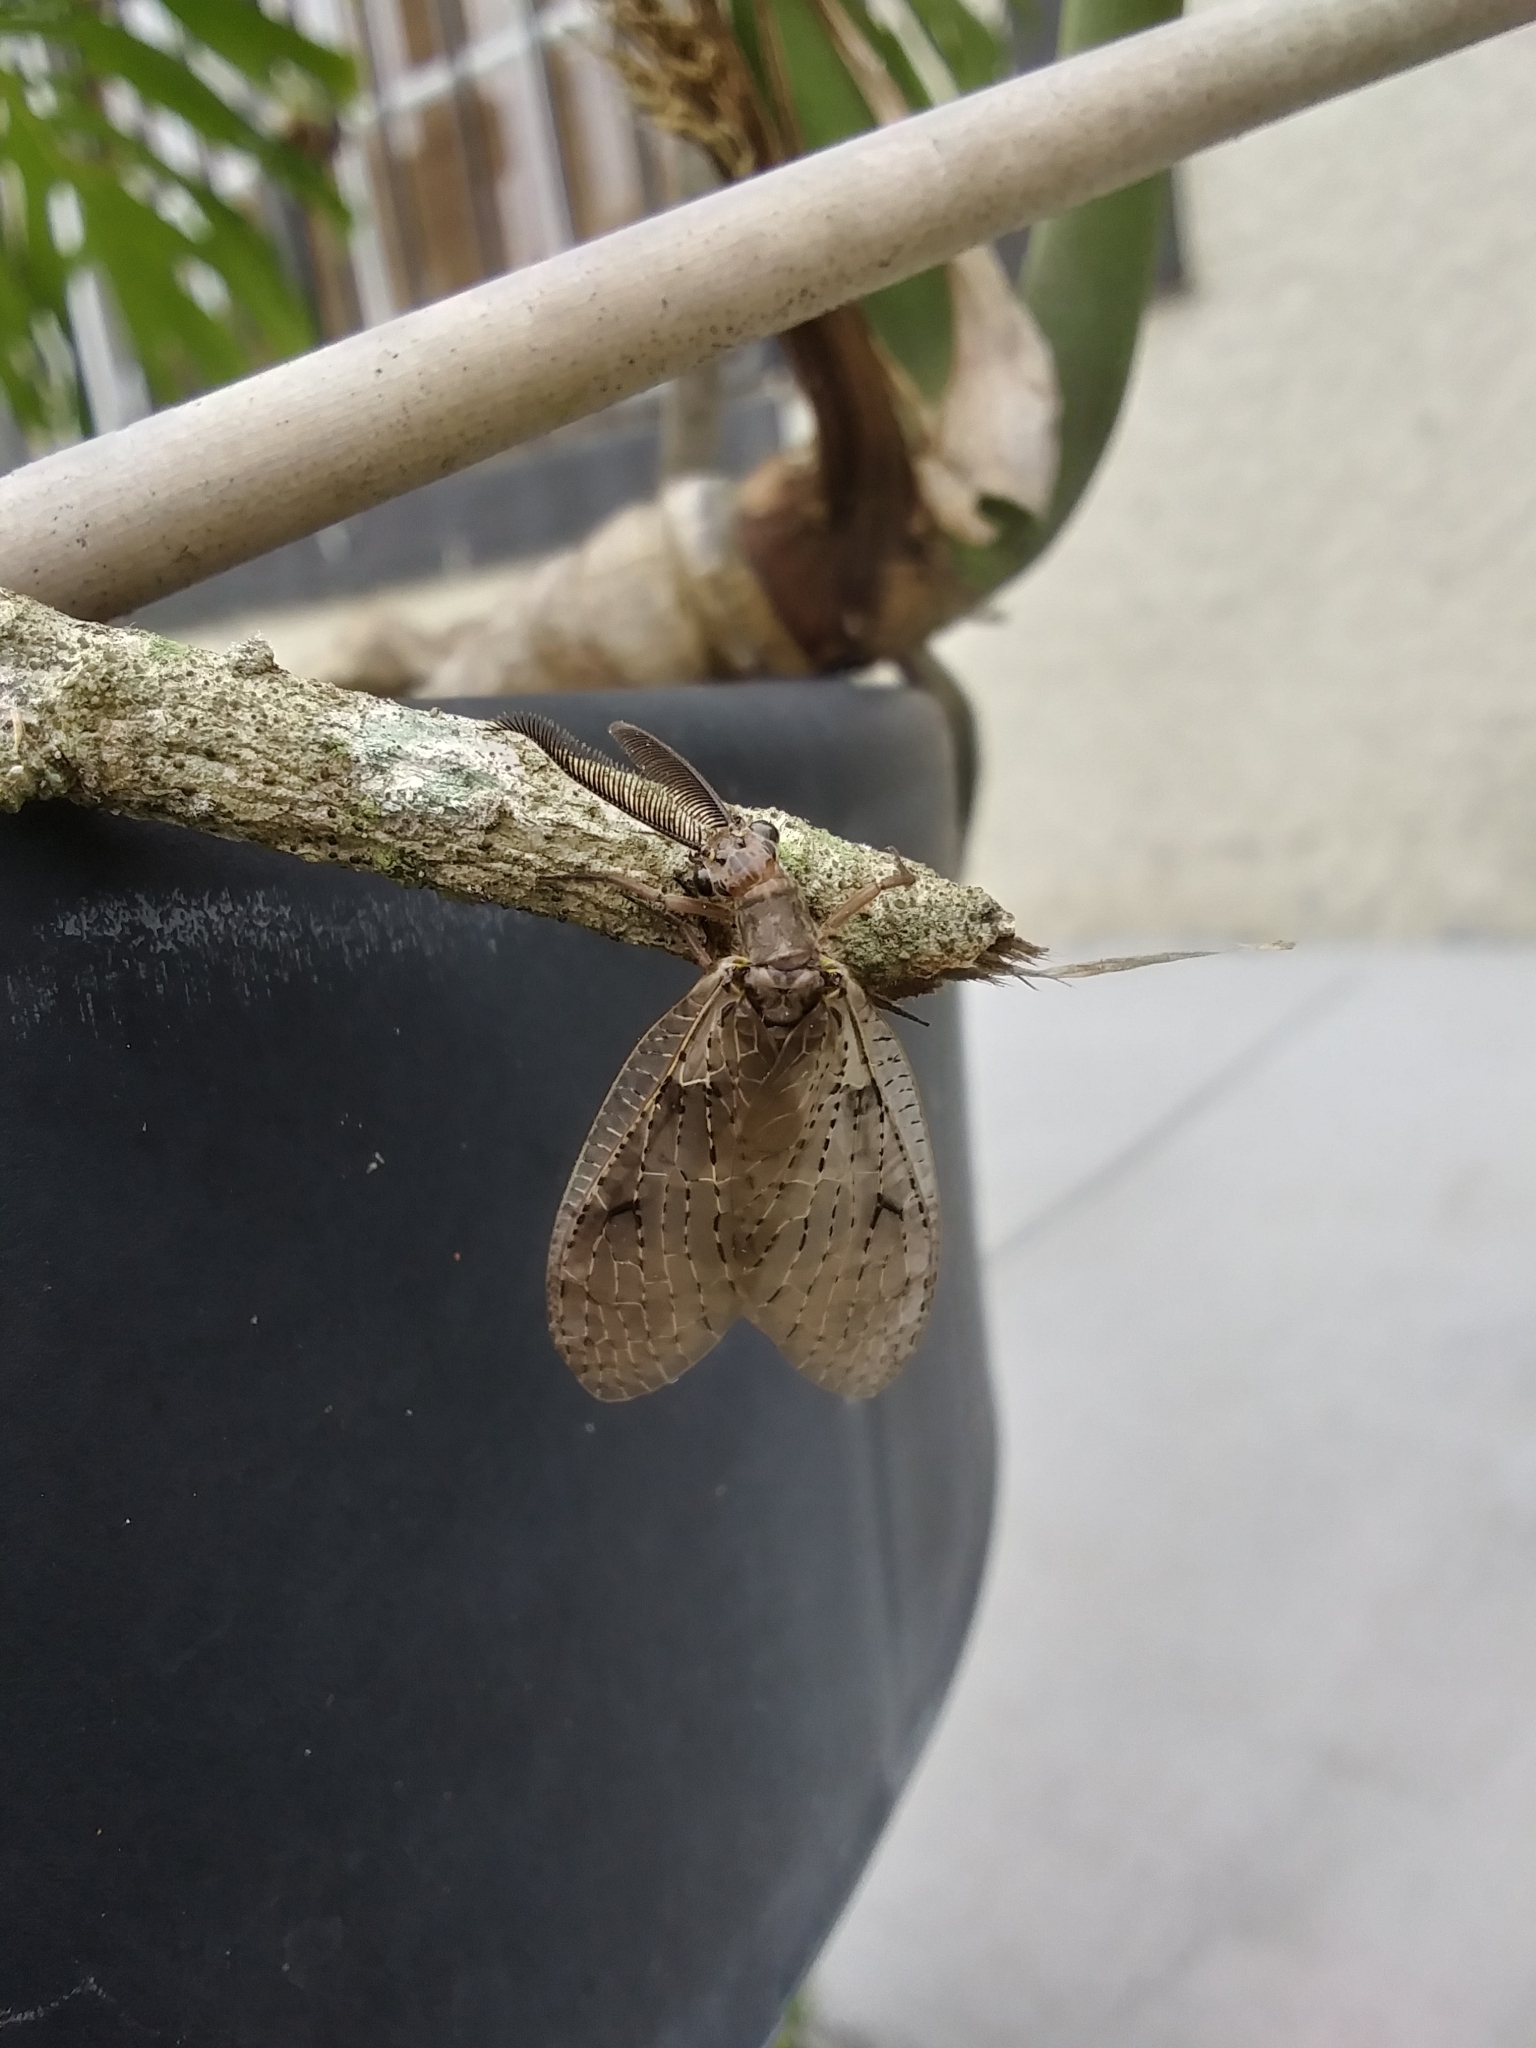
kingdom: Animalia
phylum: Arthropoda
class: Insecta
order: Megaloptera
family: Corydalidae
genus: Chauliodes
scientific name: Chauliodes rastricornis
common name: Spring fishfly
